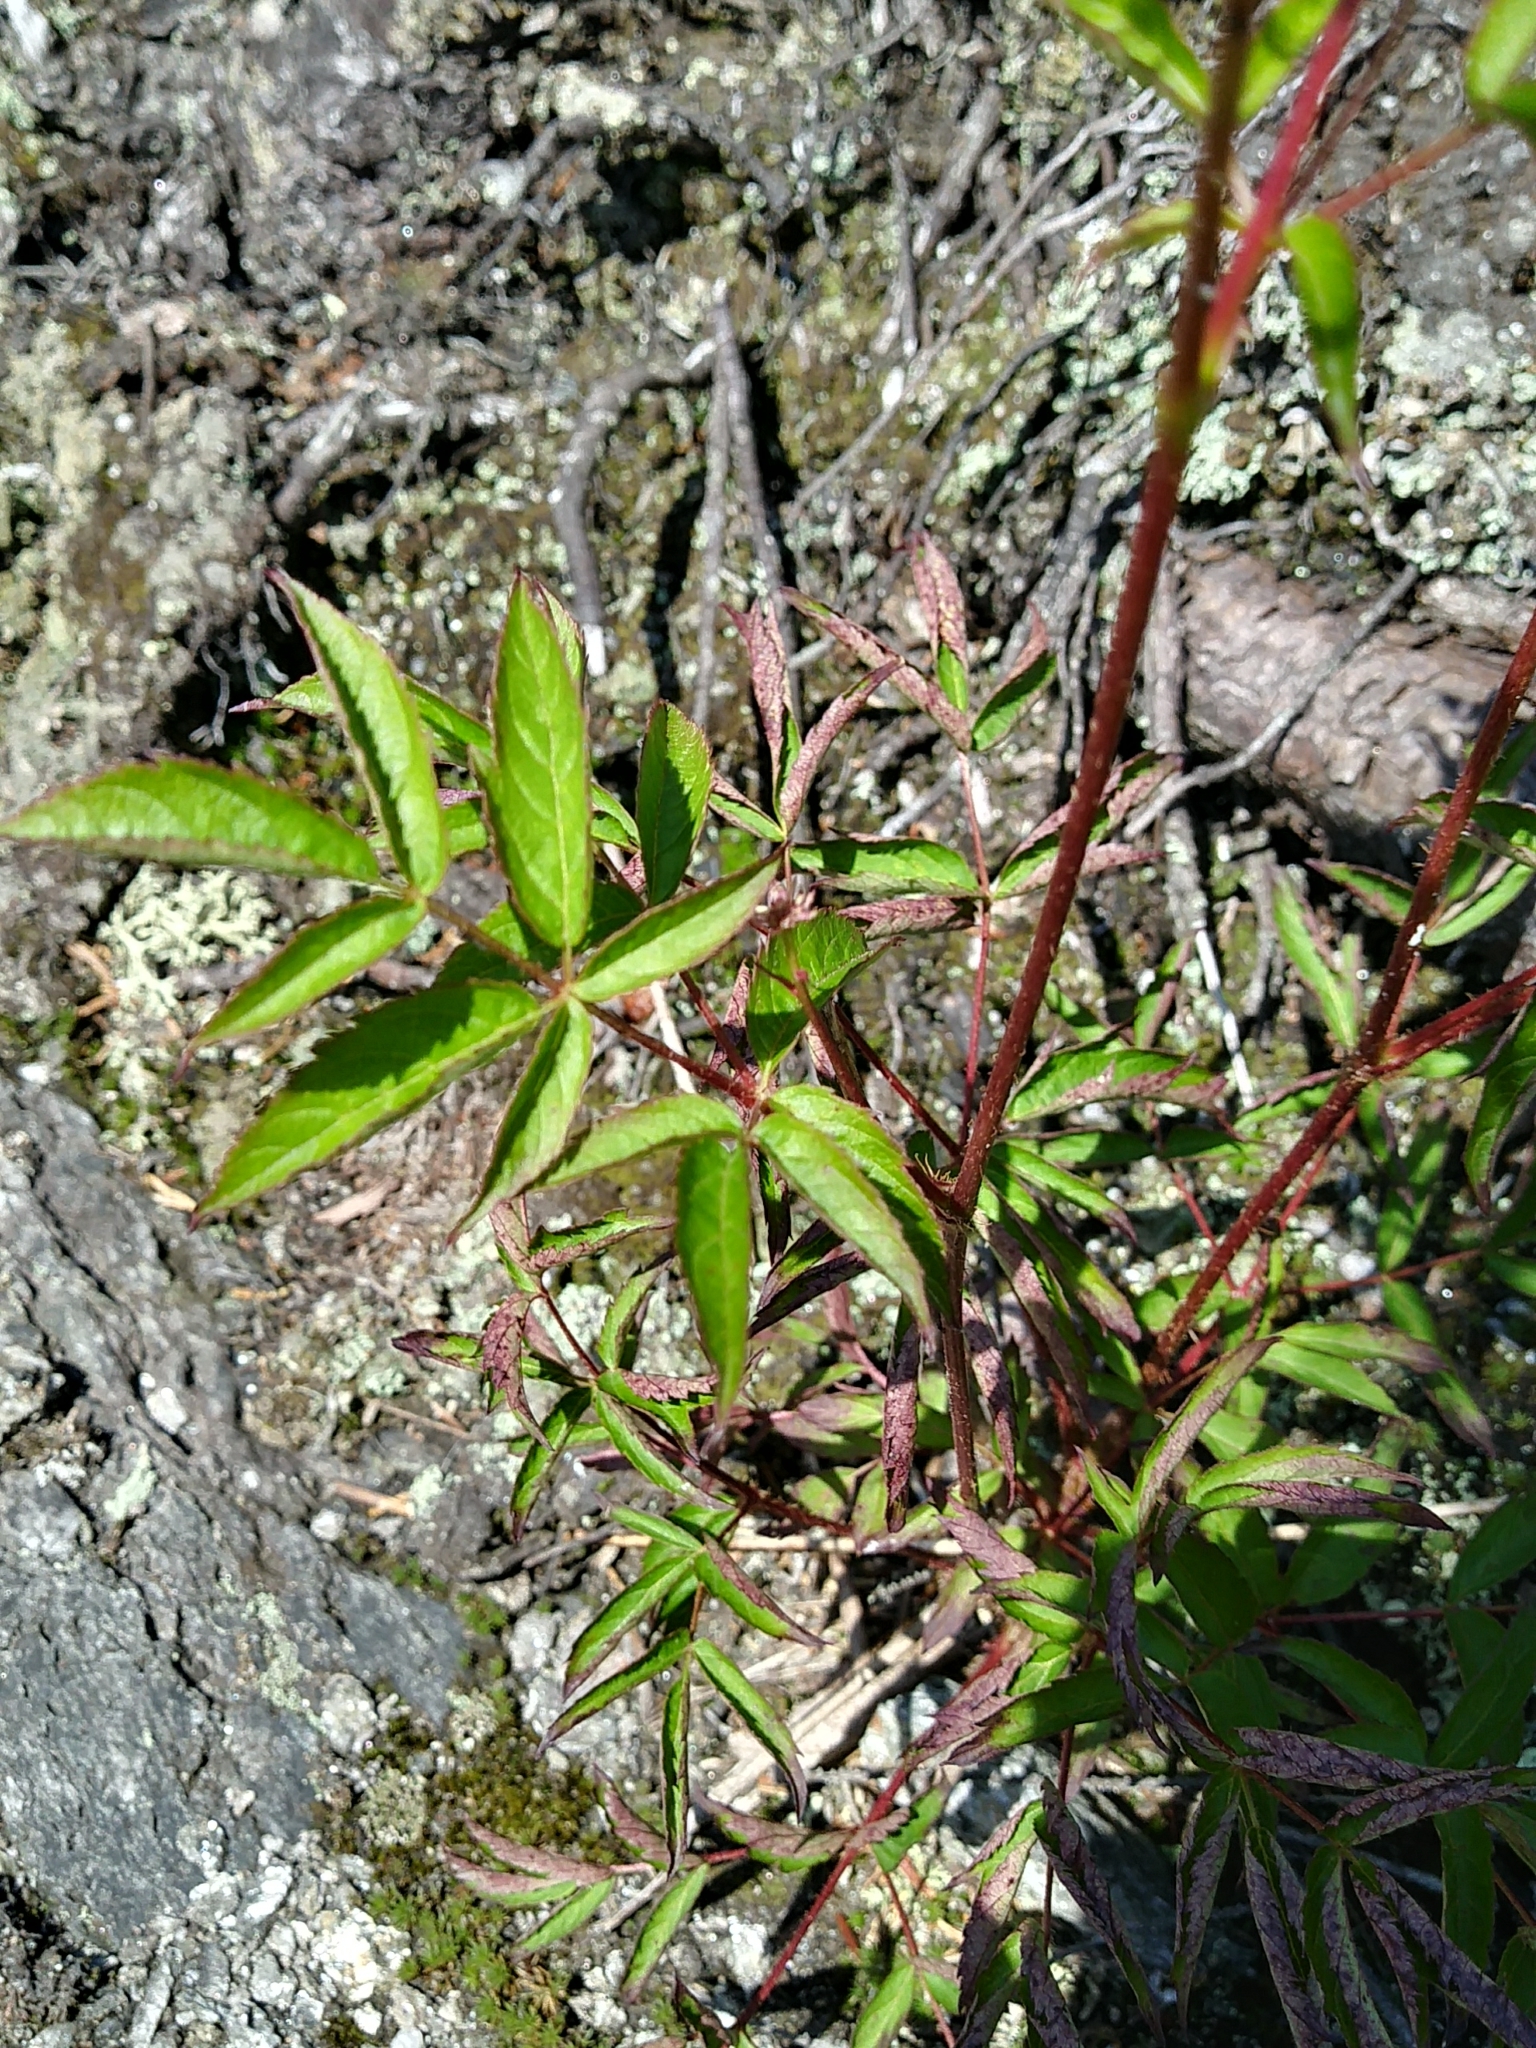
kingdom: Plantae
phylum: Tracheophyta
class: Magnoliopsida
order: Apiales
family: Araliaceae
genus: Aralia
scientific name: Aralia hispida
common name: Bristly sarsaparilla
